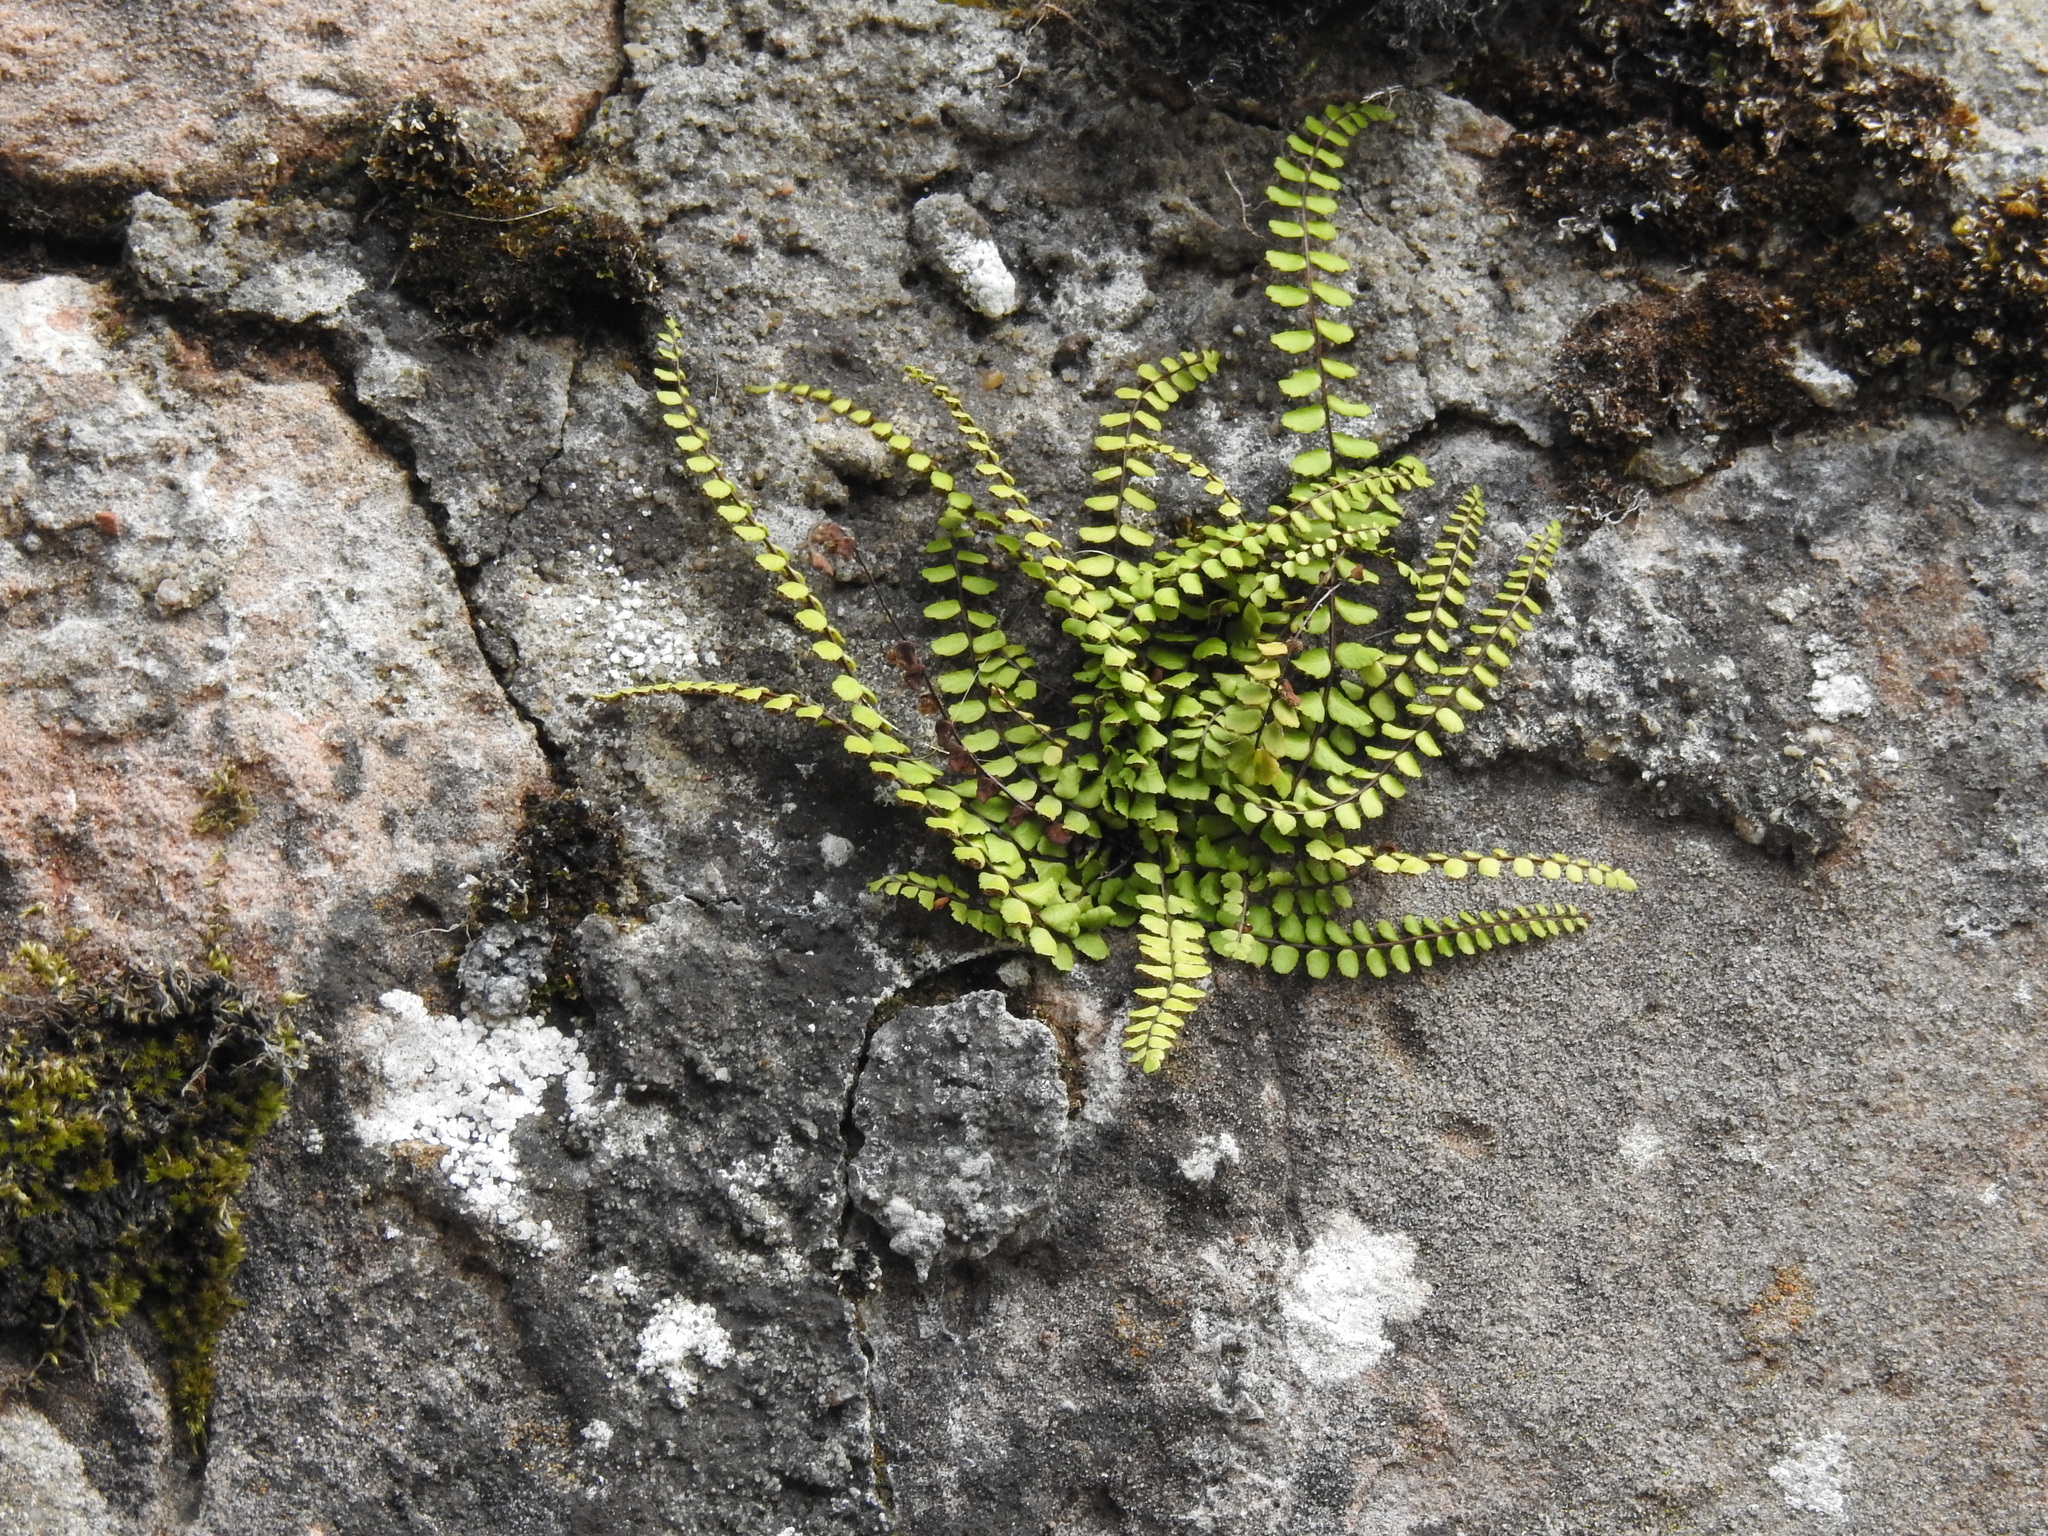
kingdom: Plantae
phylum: Tracheophyta
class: Polypodiopsida
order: Polypodiales
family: Aspleniaceae
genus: Asplenium
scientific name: Asplenium trichomanes
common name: Maidenhair spleenwort
